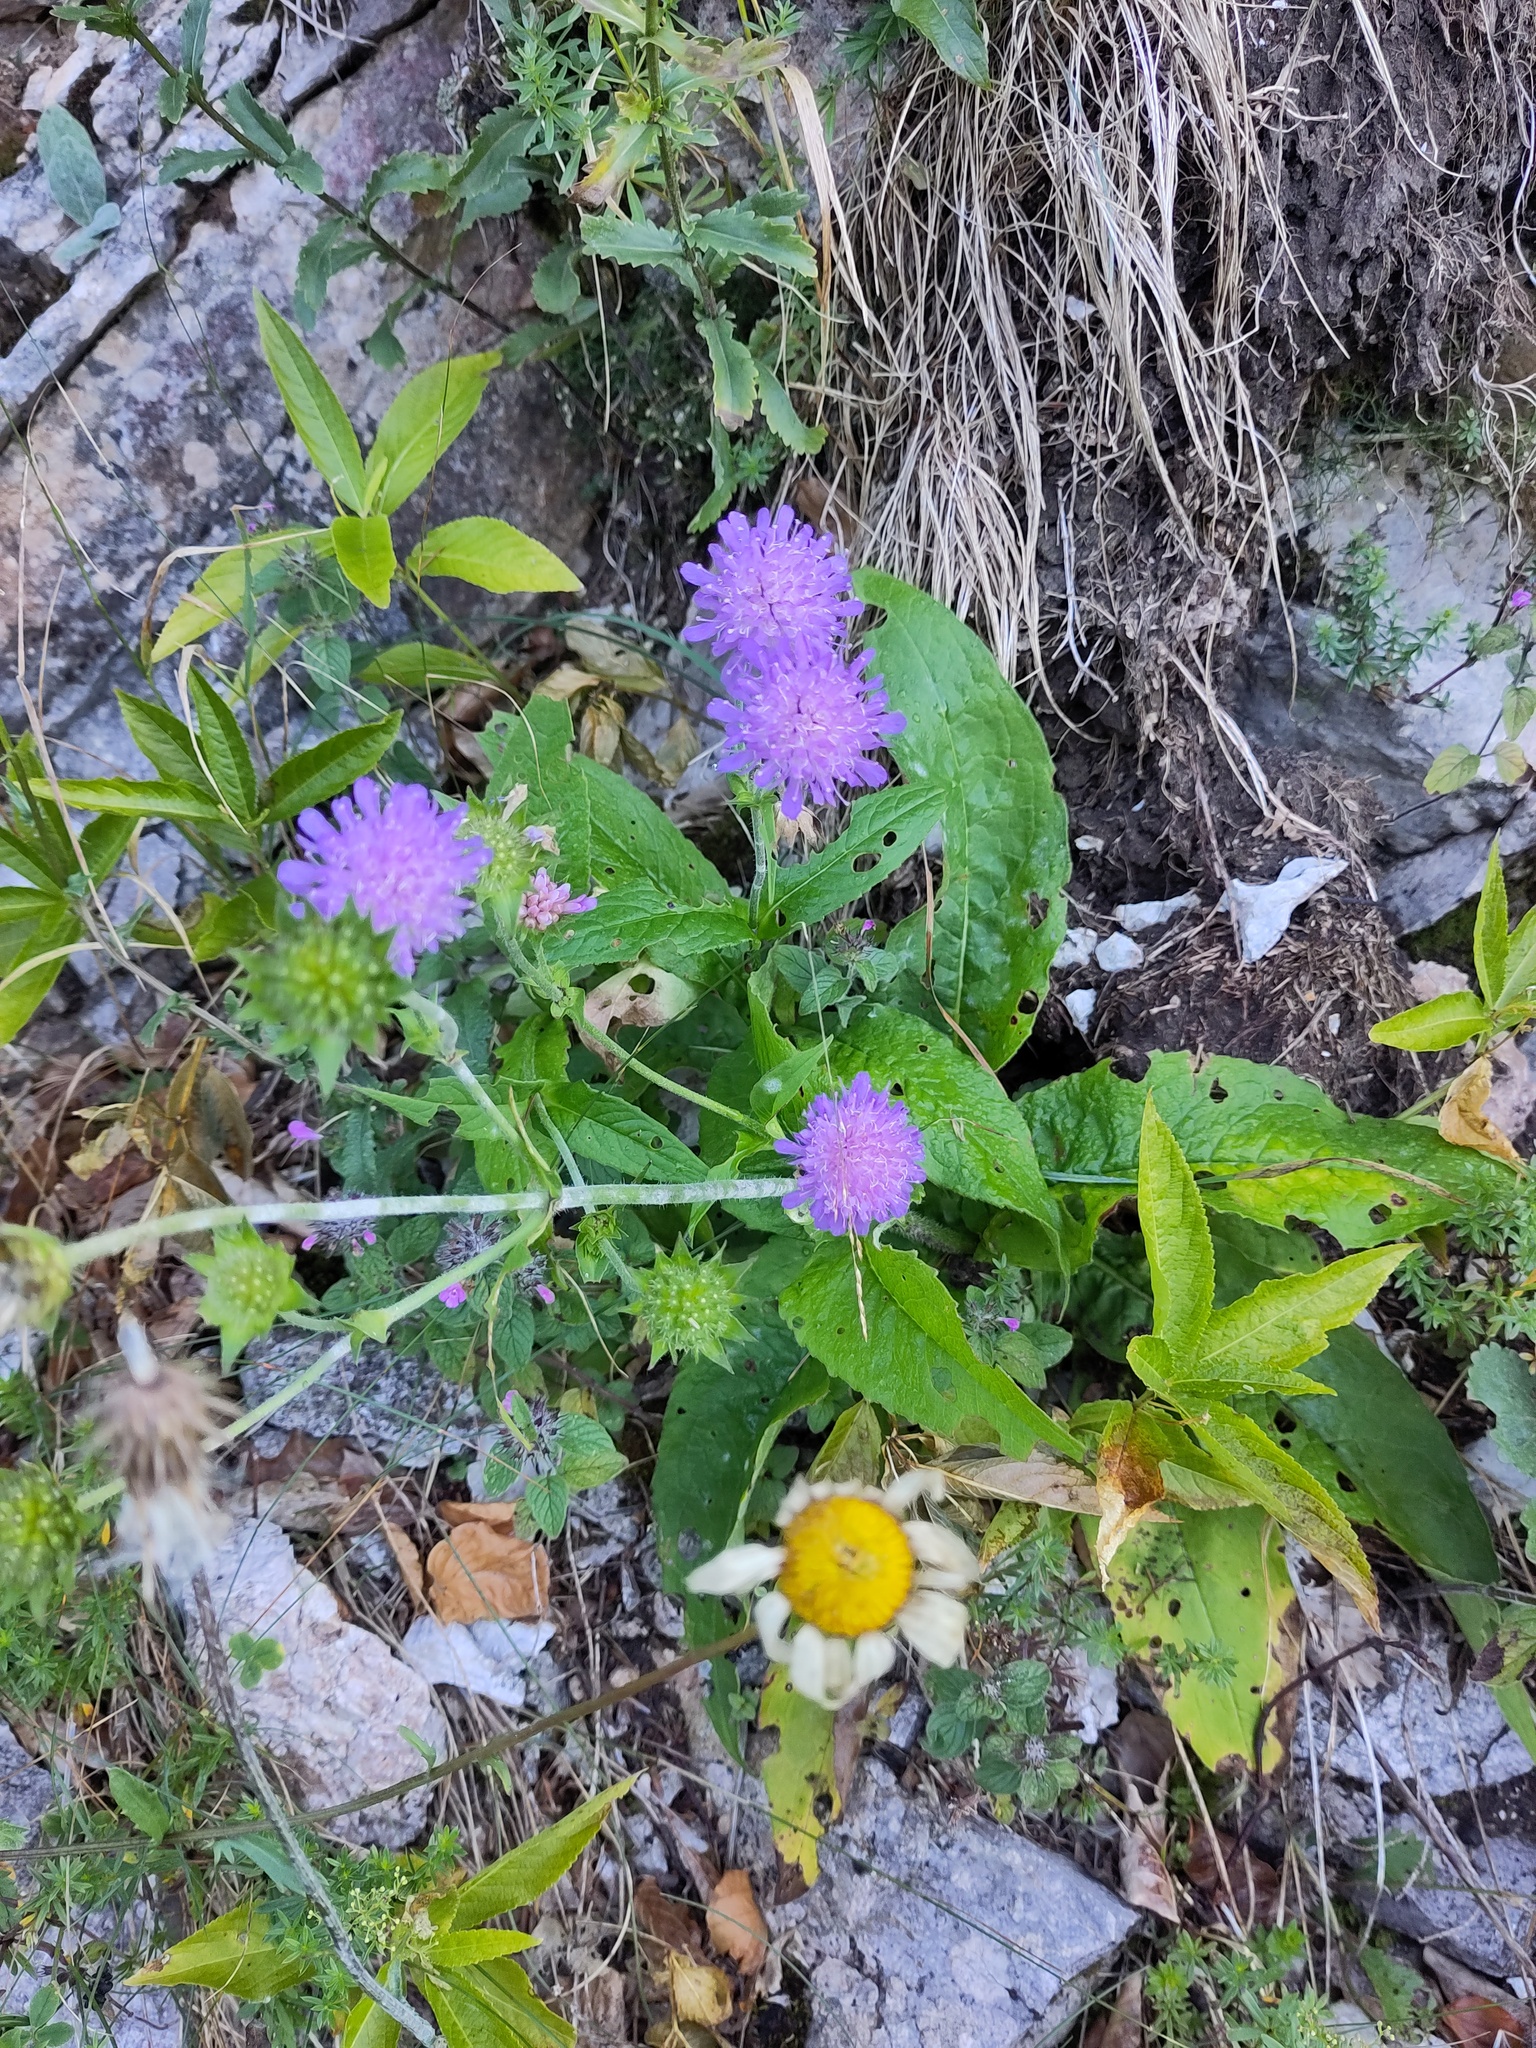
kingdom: Plantae
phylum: Tracheophyta
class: Magnoliopsida
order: Dipsacales
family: Caprifoliaceae
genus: Knautia
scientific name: Knautia dipsacifolia
